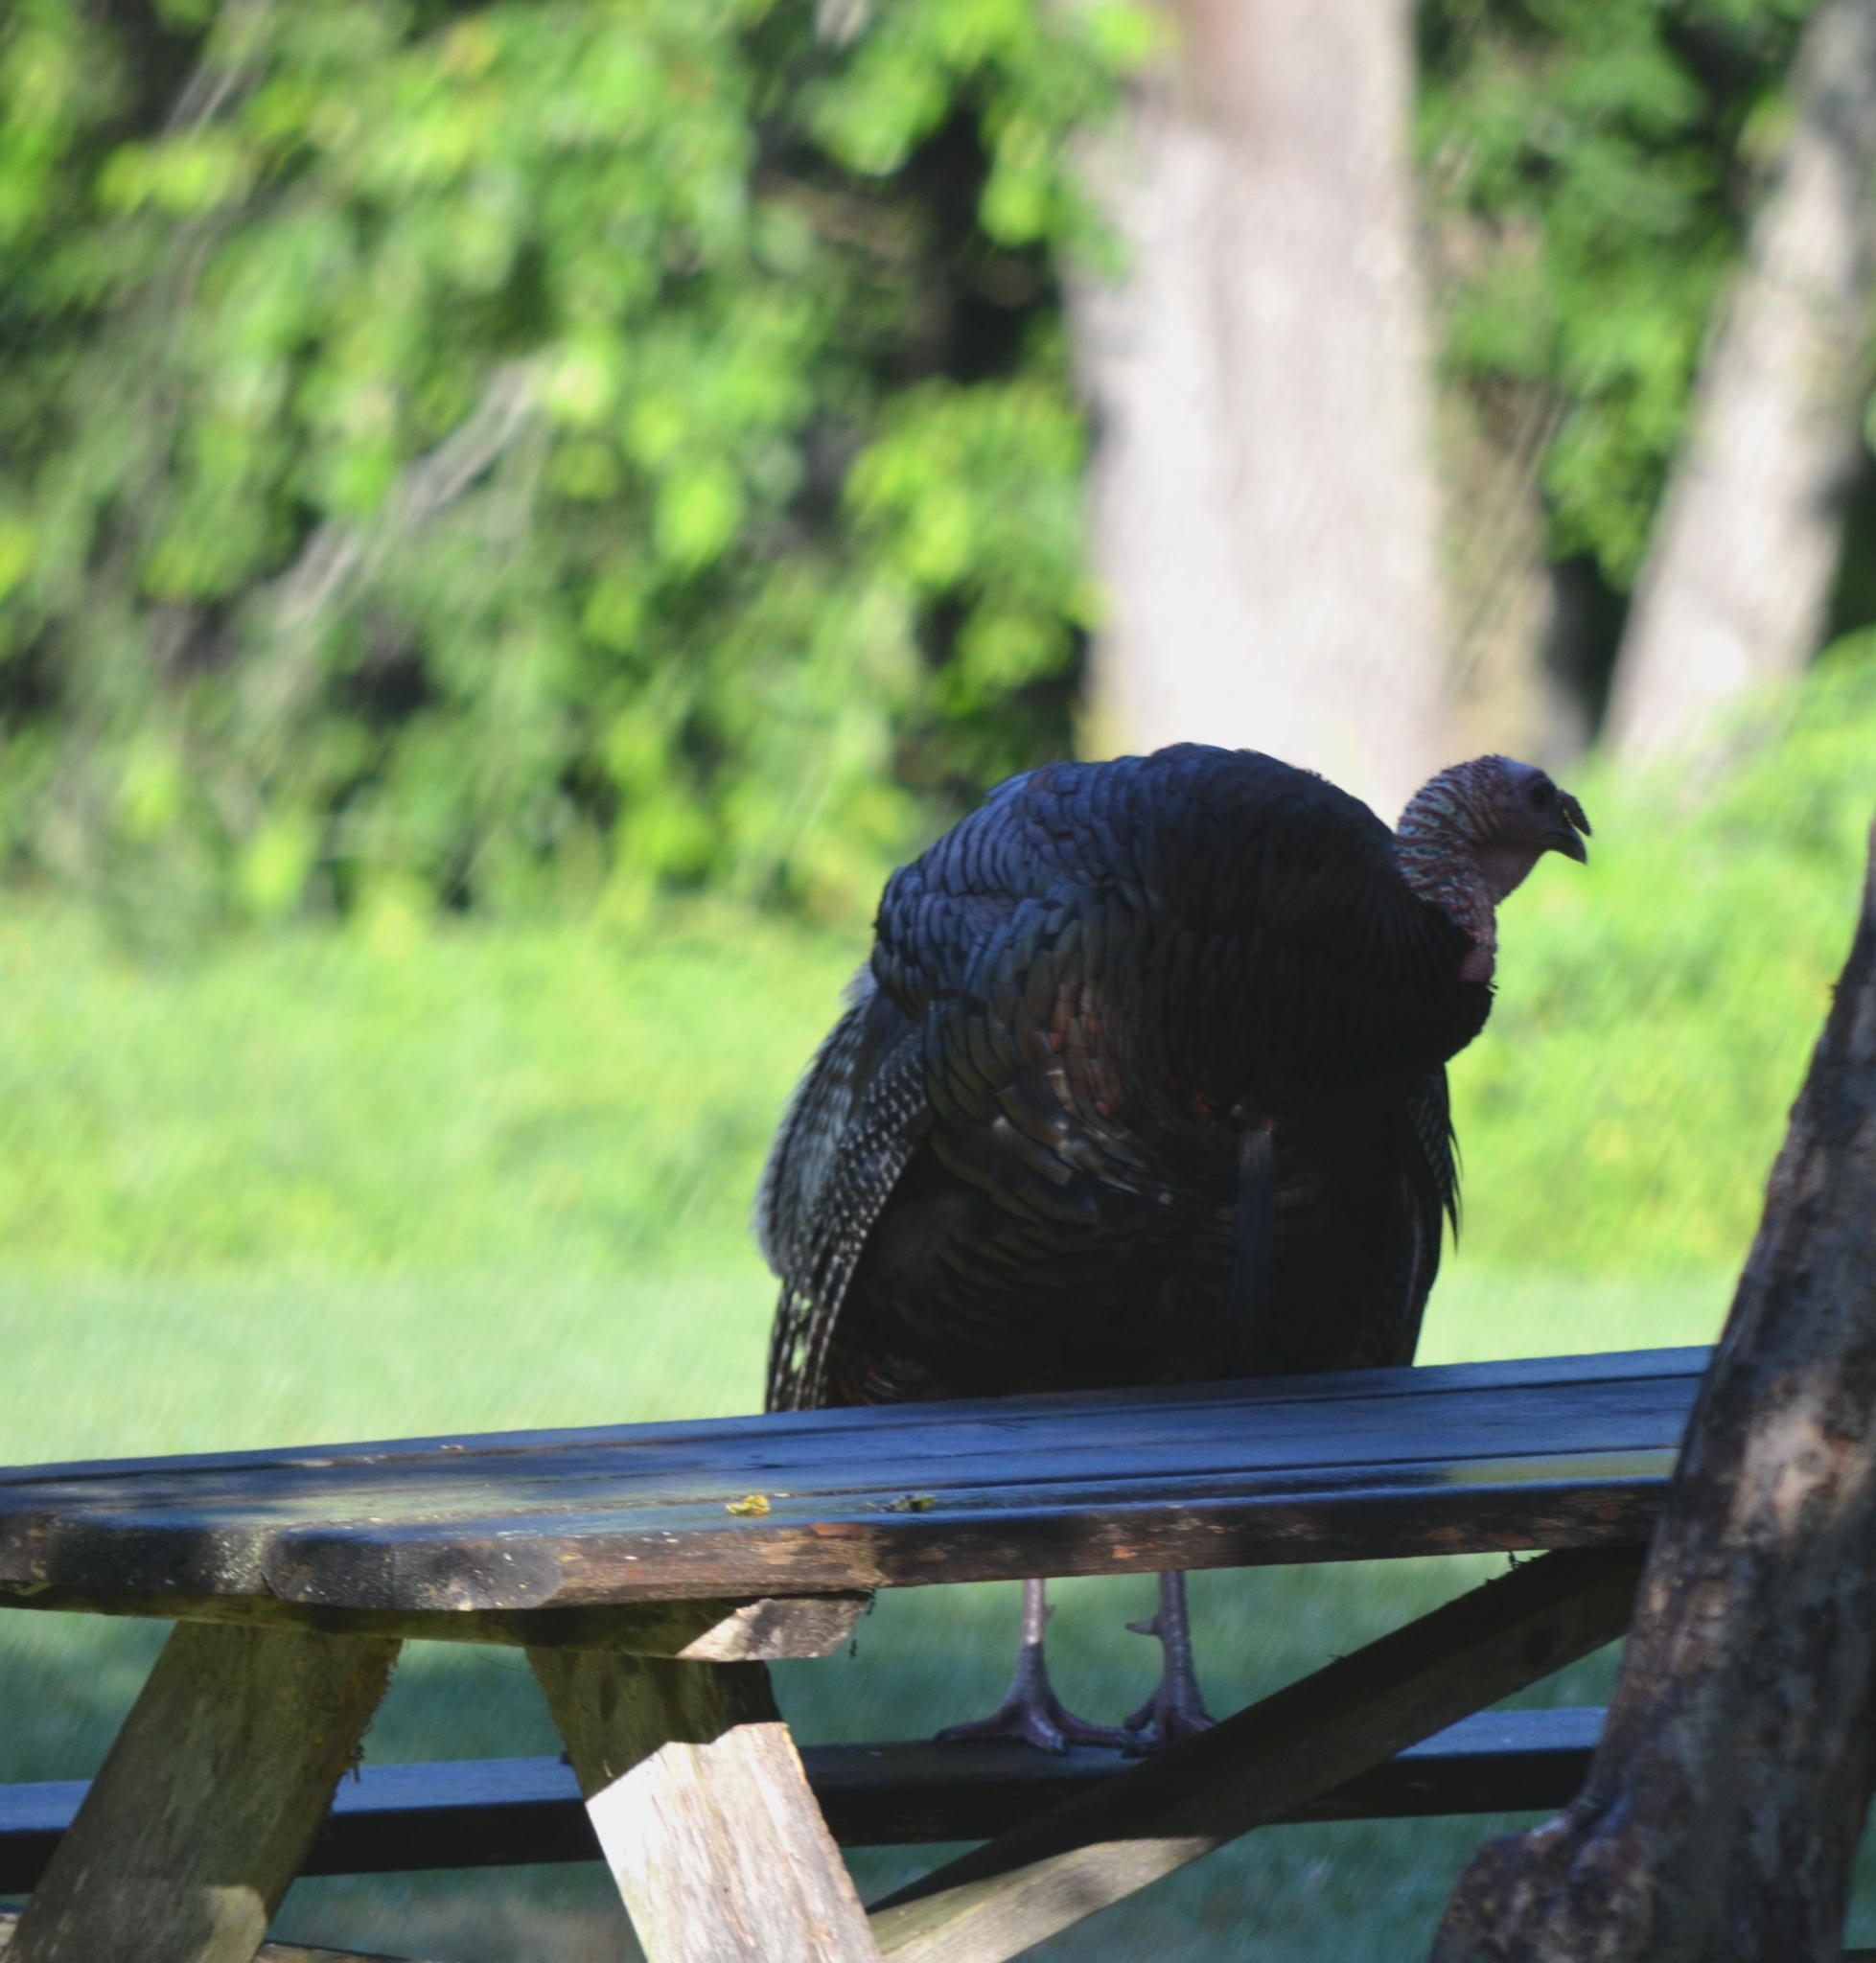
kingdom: Animalia
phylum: Chordata
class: Aves
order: Galliformes
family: Phasianidae
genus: Meleagris
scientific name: Meleagris gallopavo
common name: Wild turkey
